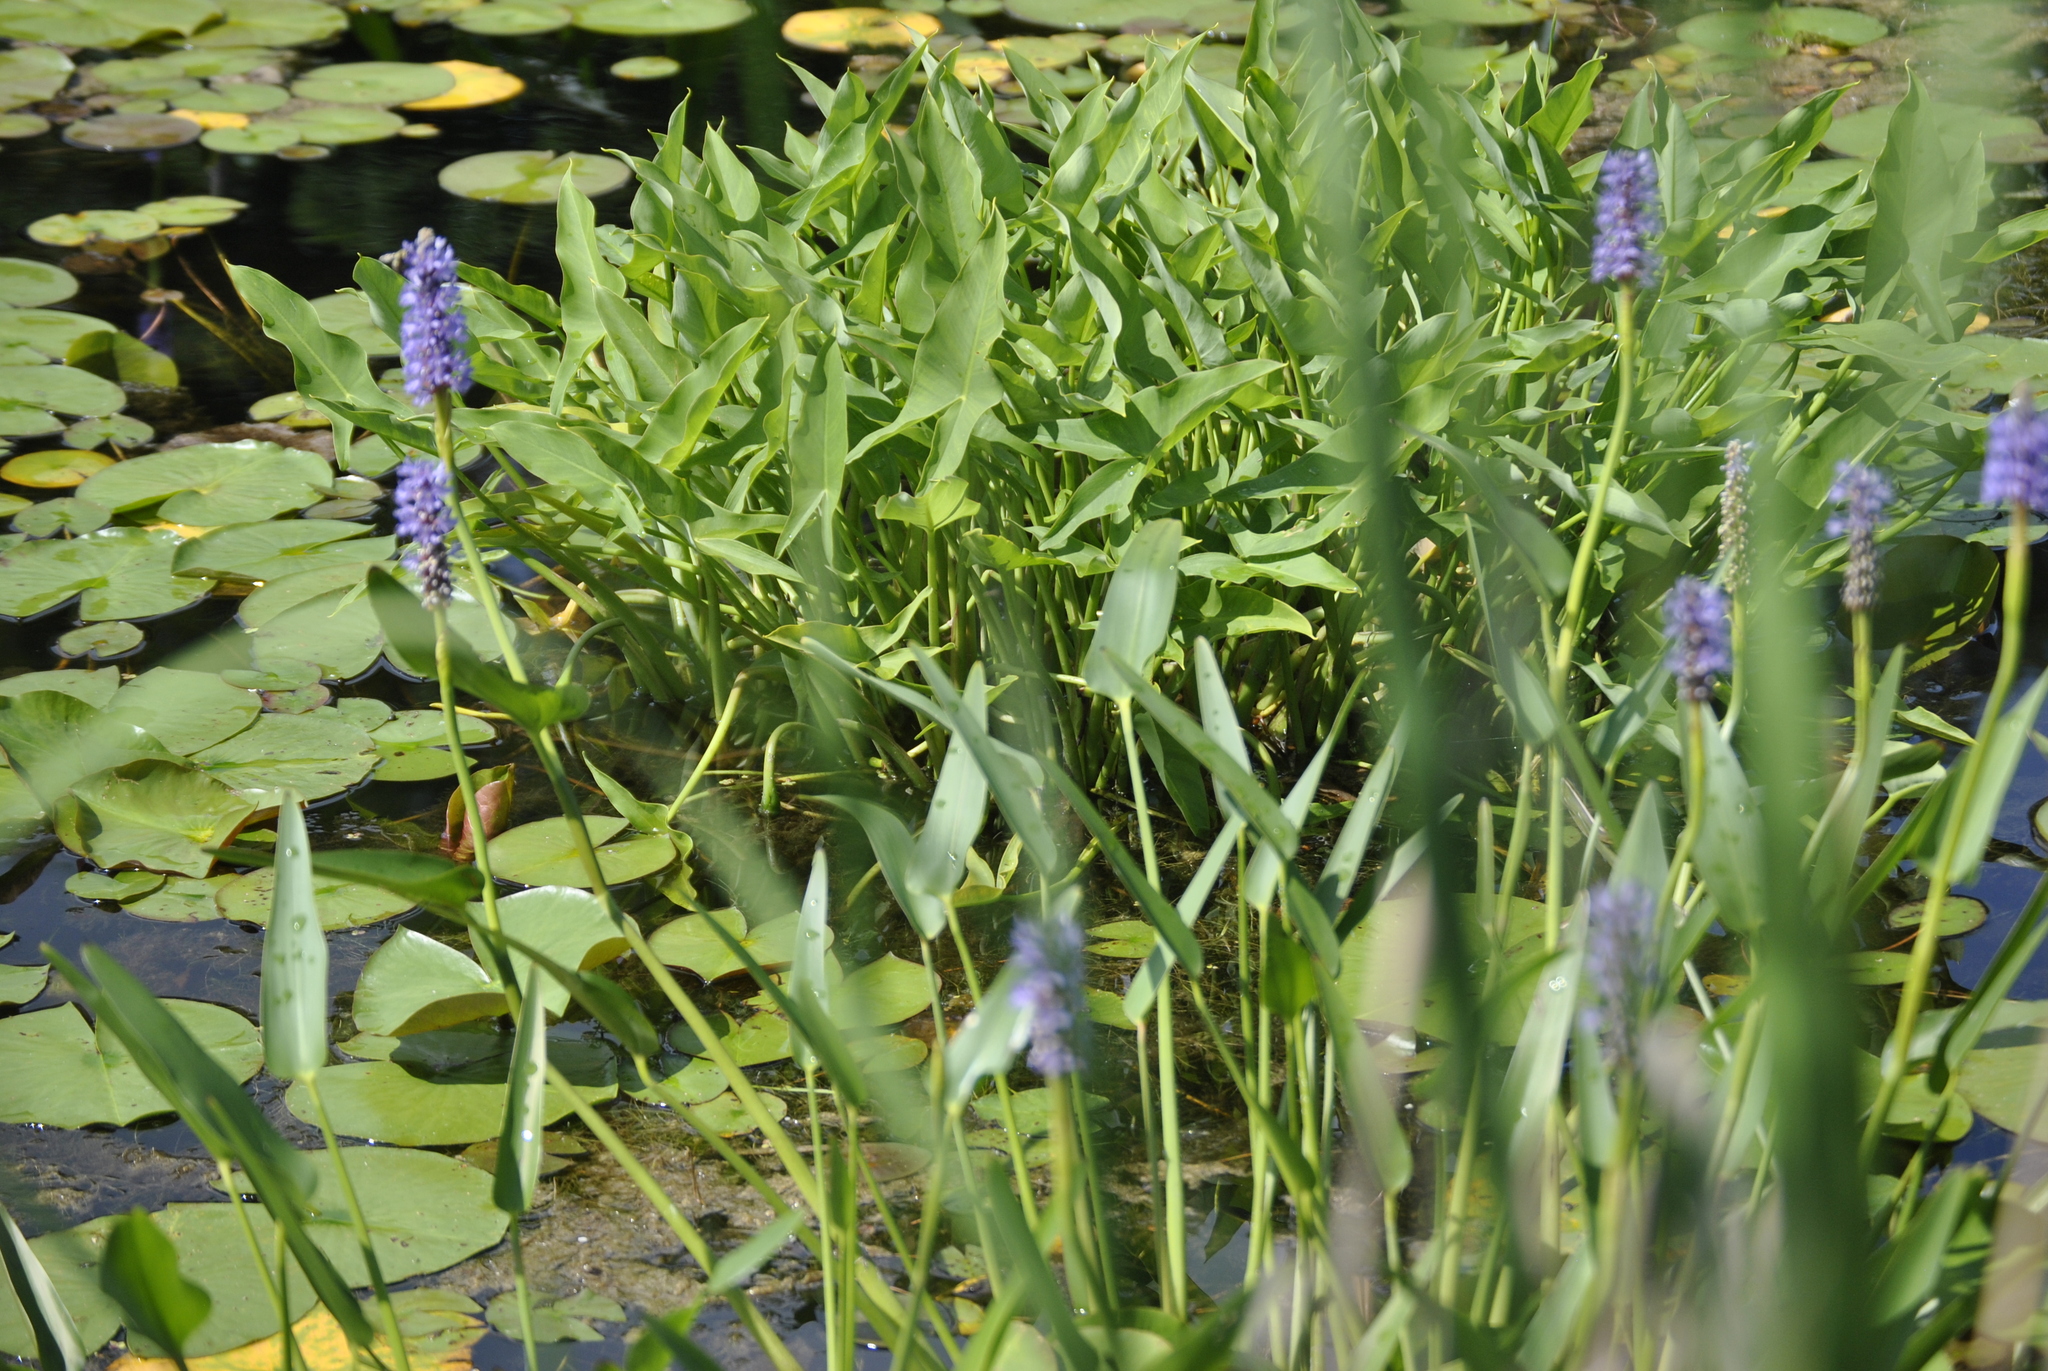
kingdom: Plantae
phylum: Tracheophyta
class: Liliopsida
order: Alismatales
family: Araceae
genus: Peltandra
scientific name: Peltandra virginica
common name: Arrow arum
